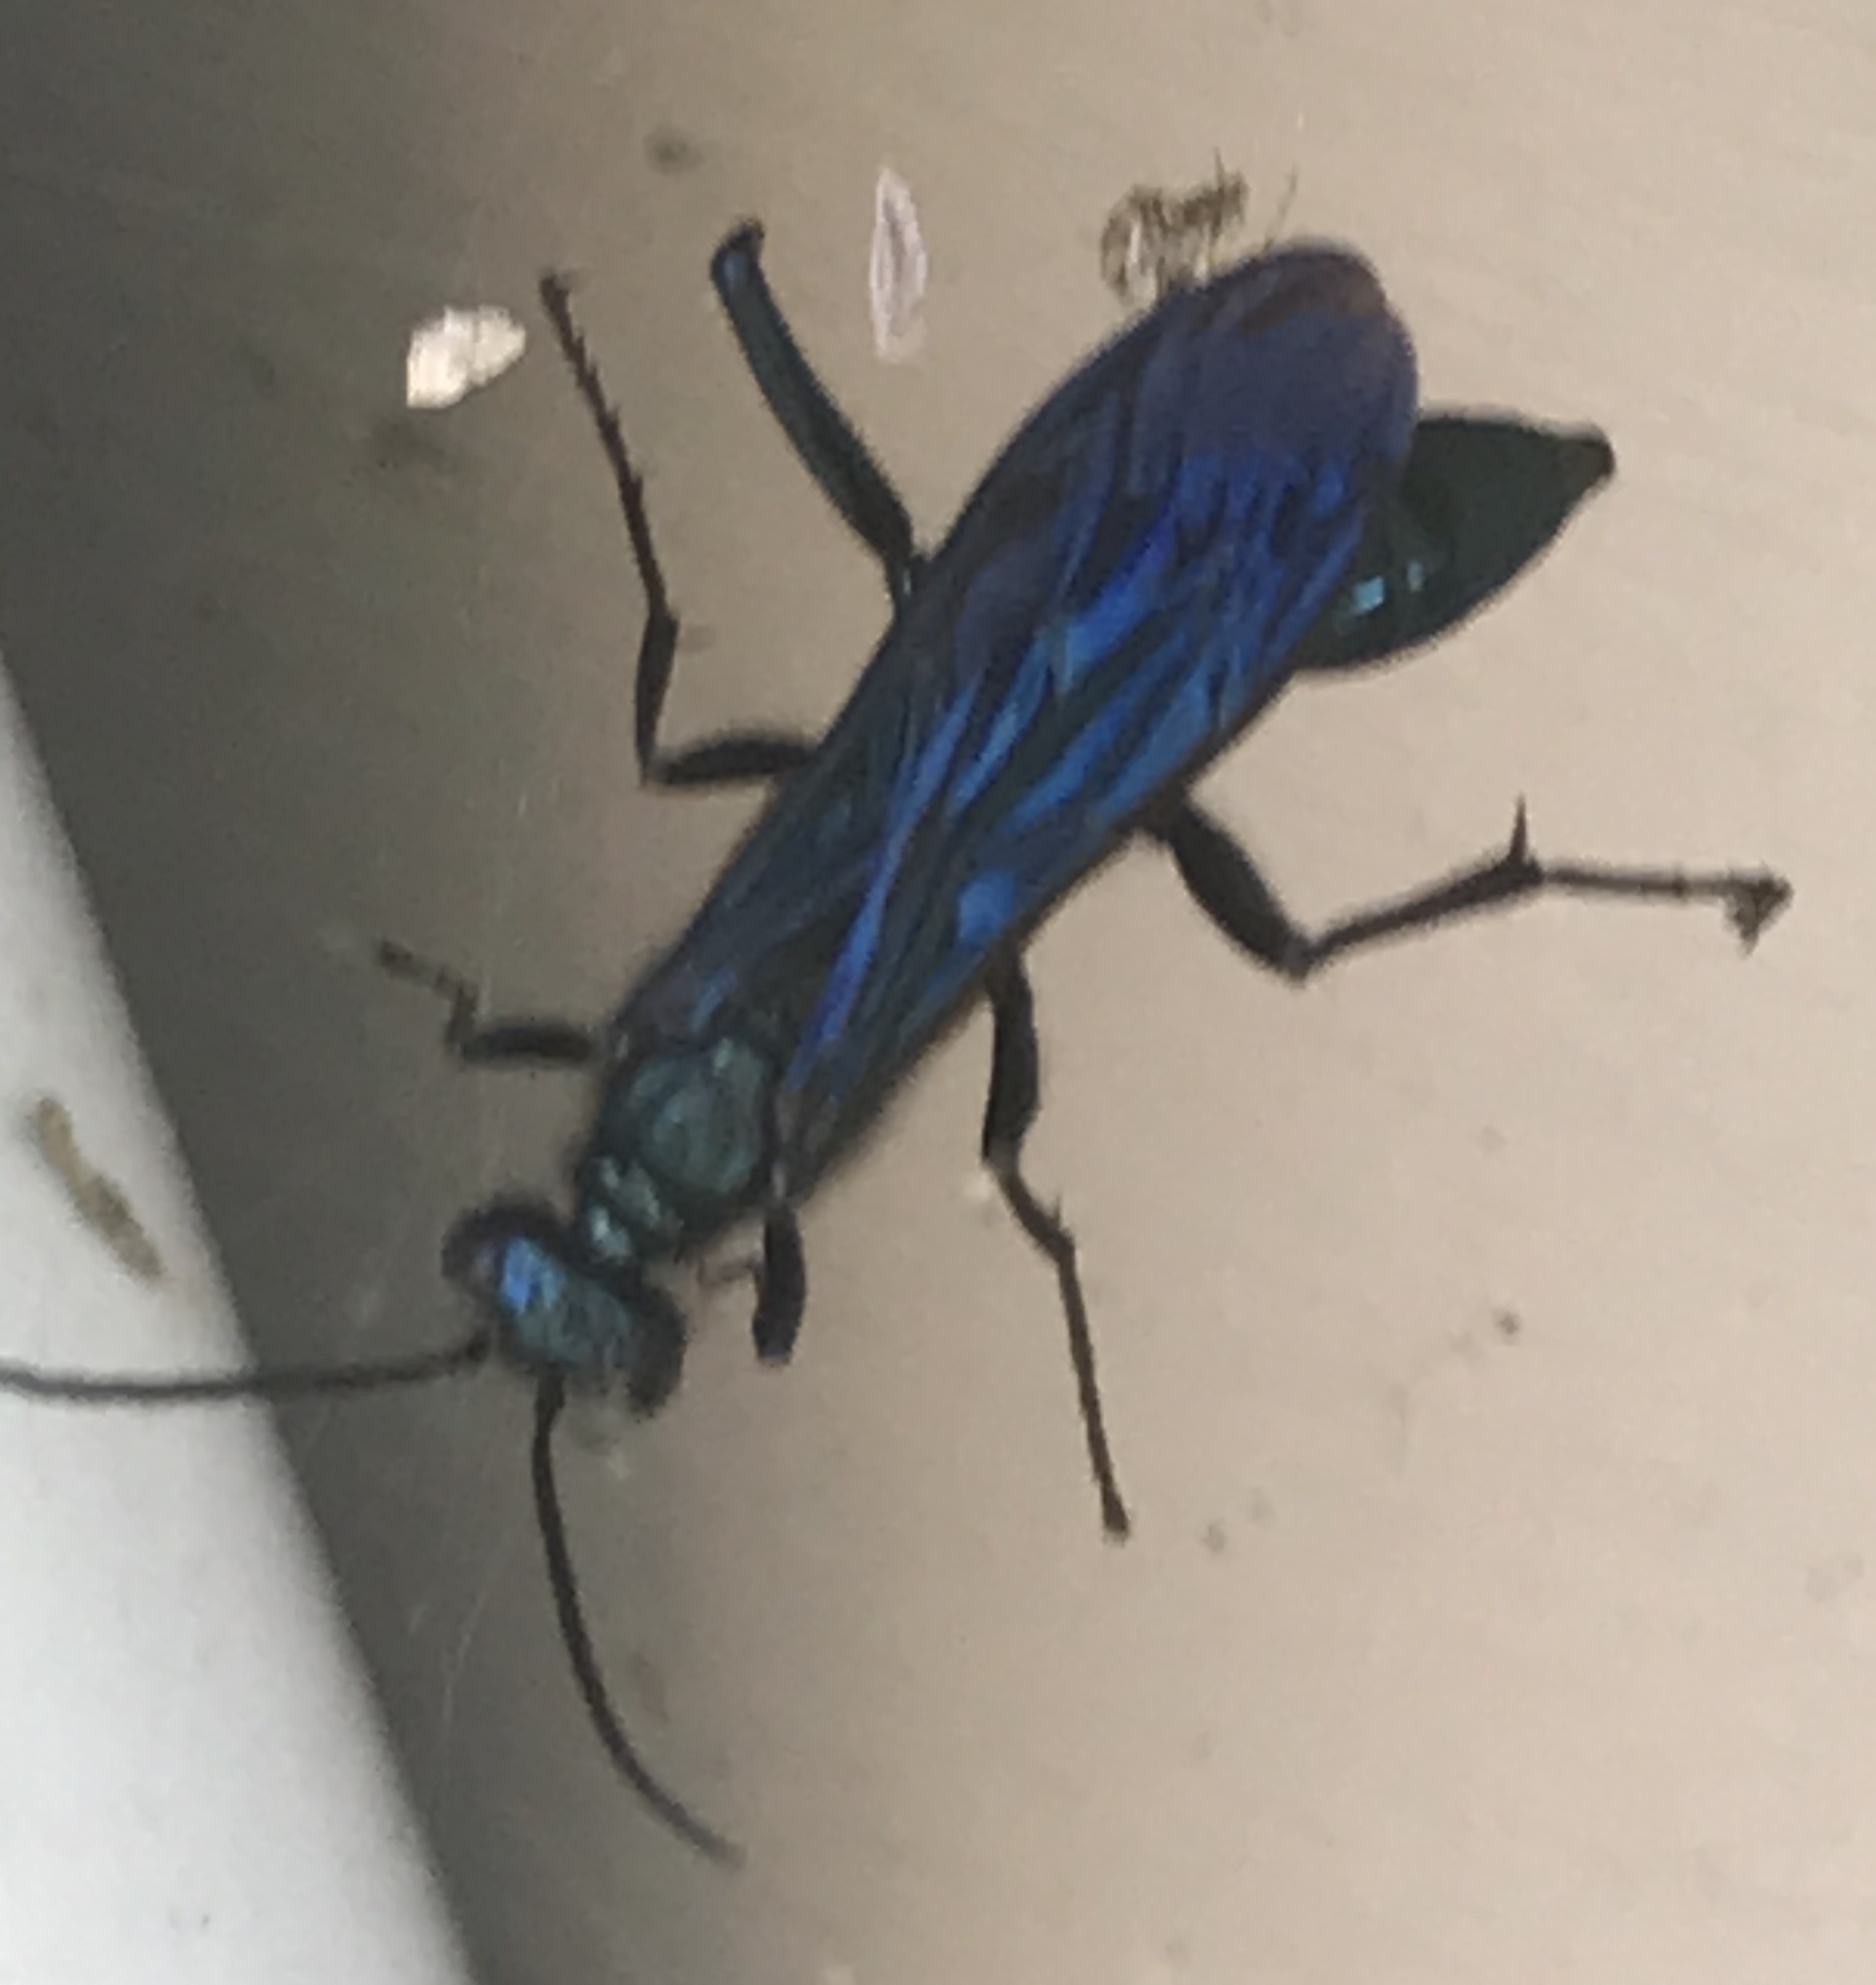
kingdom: Animalia
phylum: Arthropoda
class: Insecta
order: Hymenoptera
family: Sphecidae
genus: Chalybion
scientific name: Chalybion californicum
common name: Mud dauber
